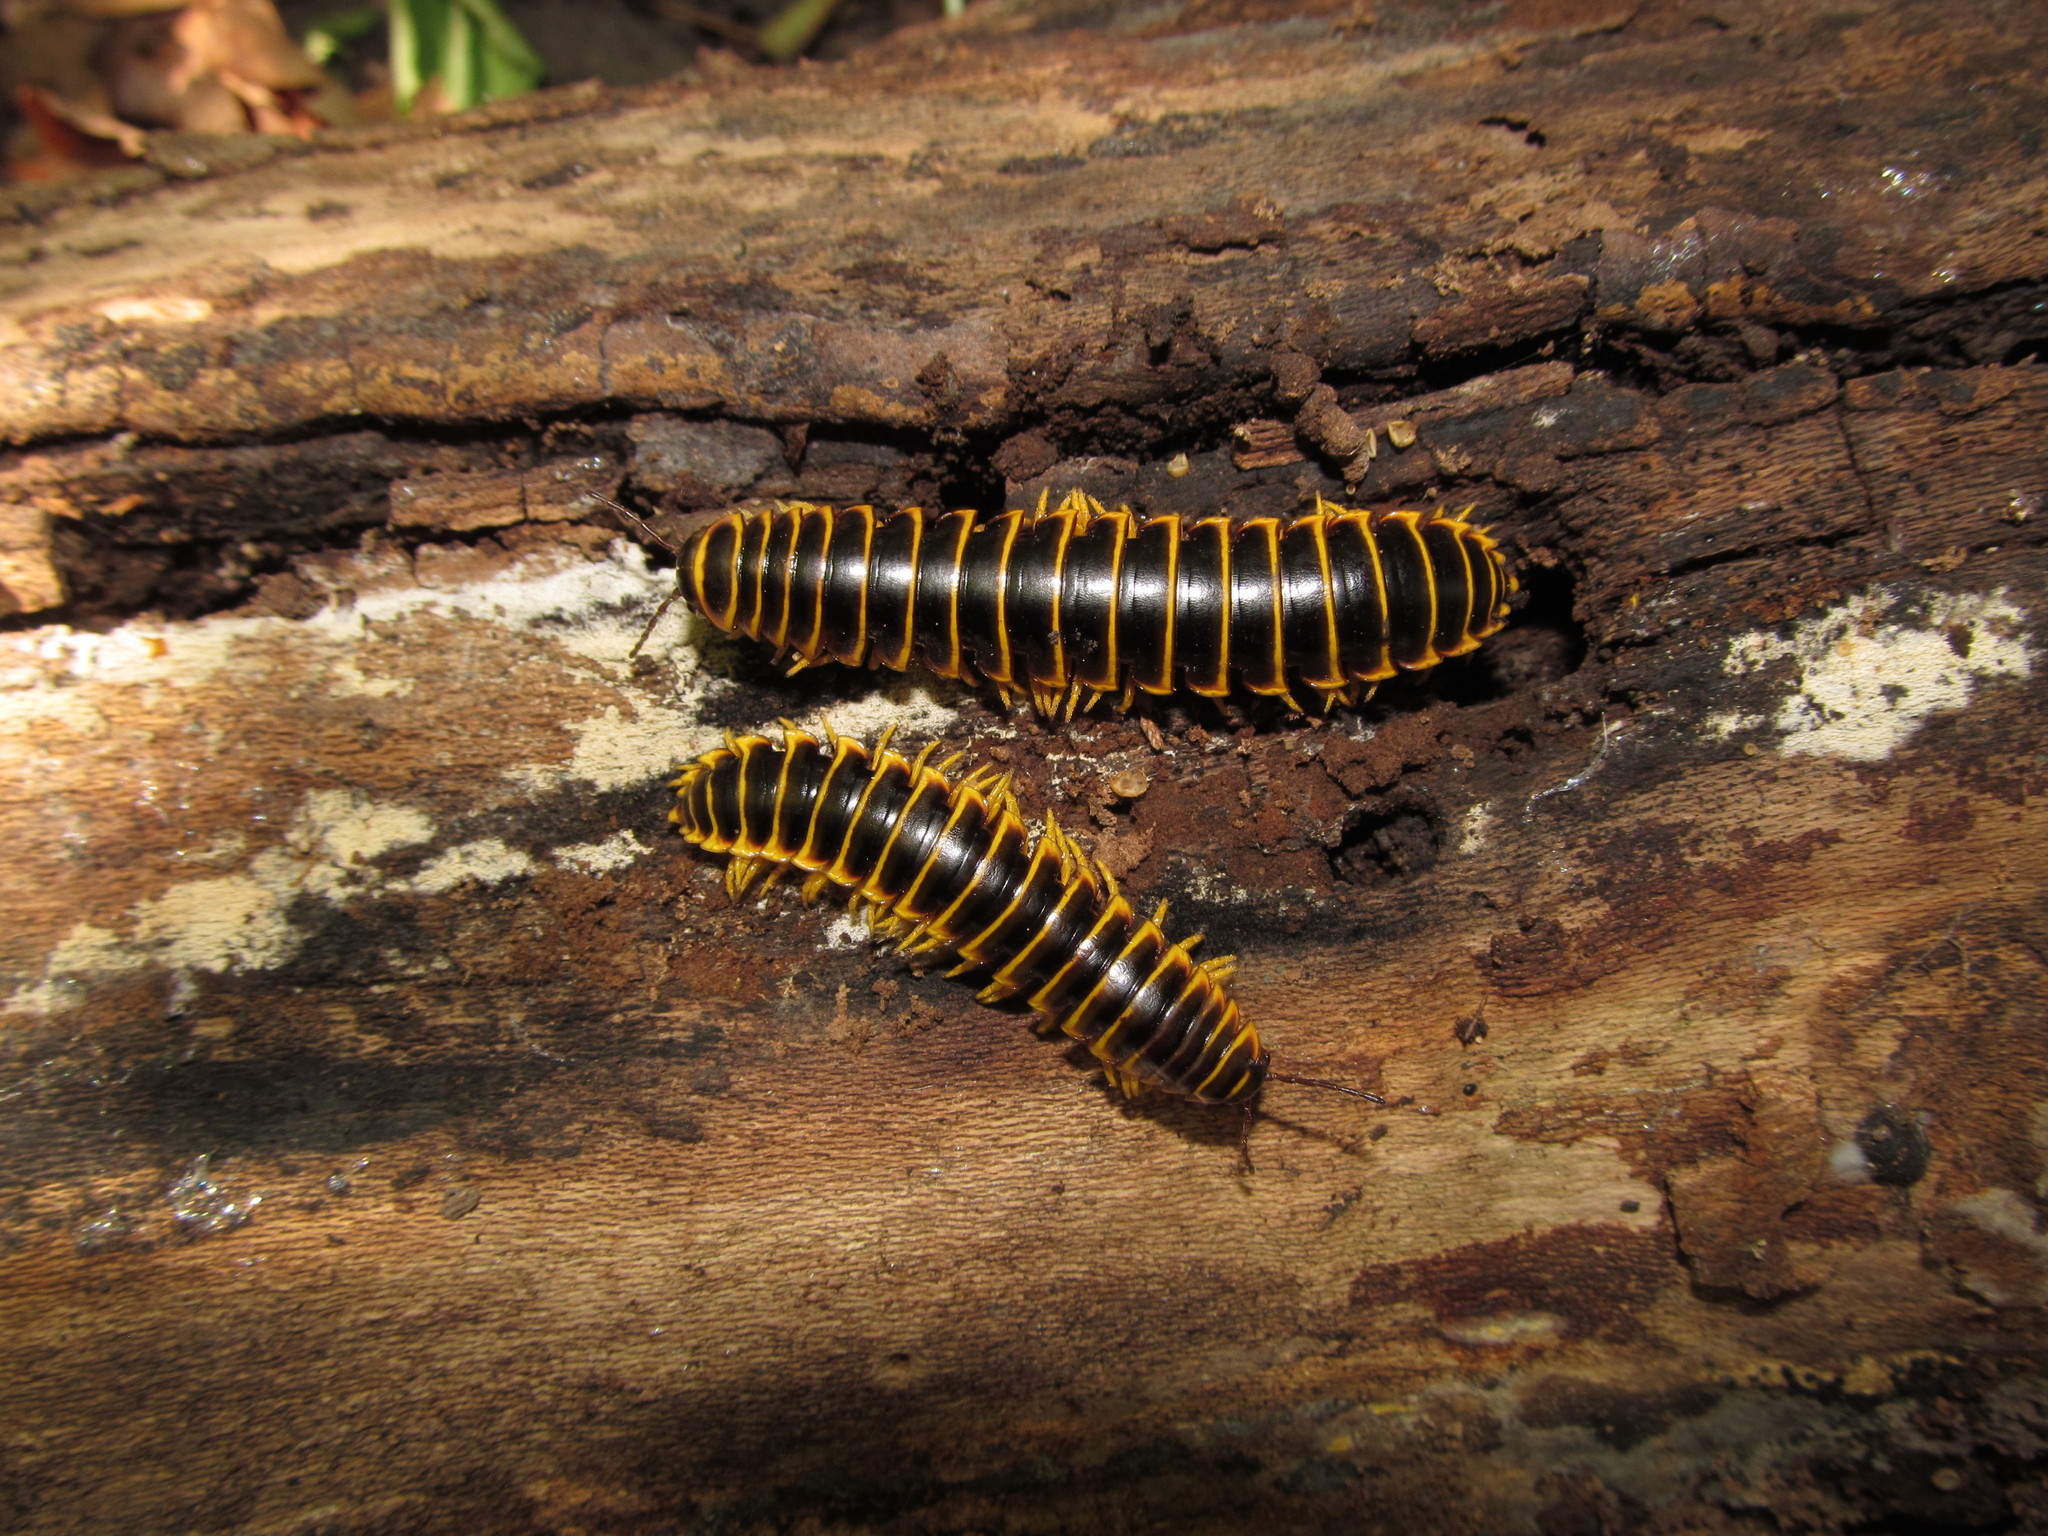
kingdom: Animalia
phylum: Arthropoda
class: Diplopoda
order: Polydesmida
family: Xystodesmidae
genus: Apheloria
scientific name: Apheloria virginiensis
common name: Black-and-gold flat millipede
